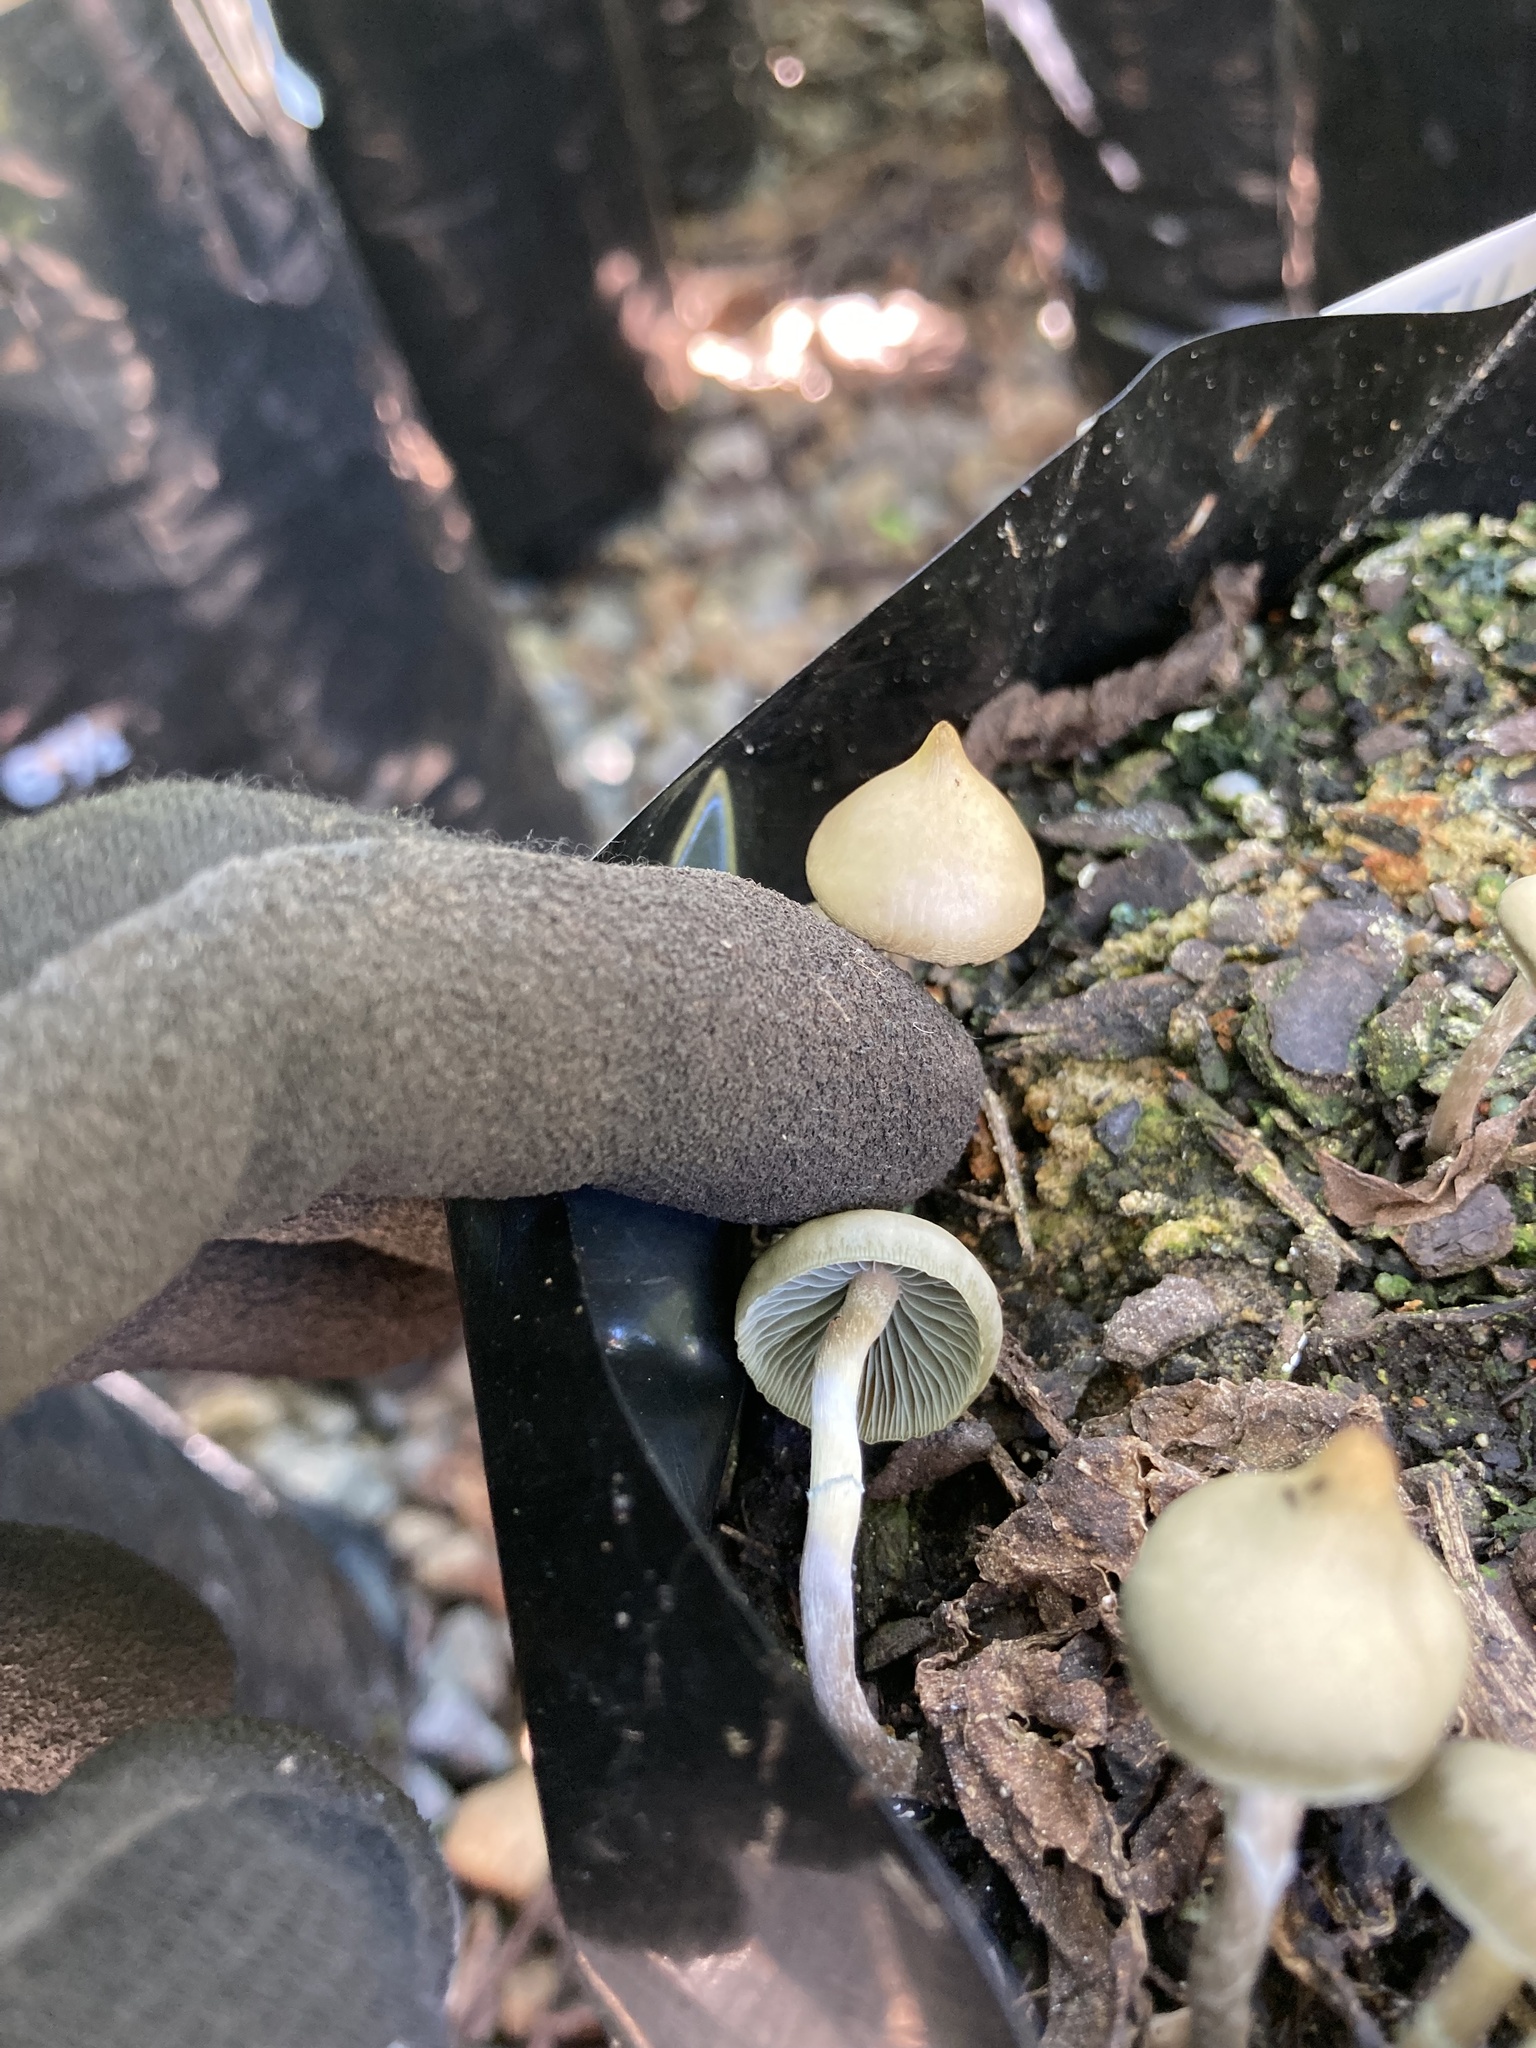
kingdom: Fungi
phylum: Basidiomycota
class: Agaricomycetes
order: Agaricales
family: Hymenogastraceae
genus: Psilocybe
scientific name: Psilocybe angulospora
